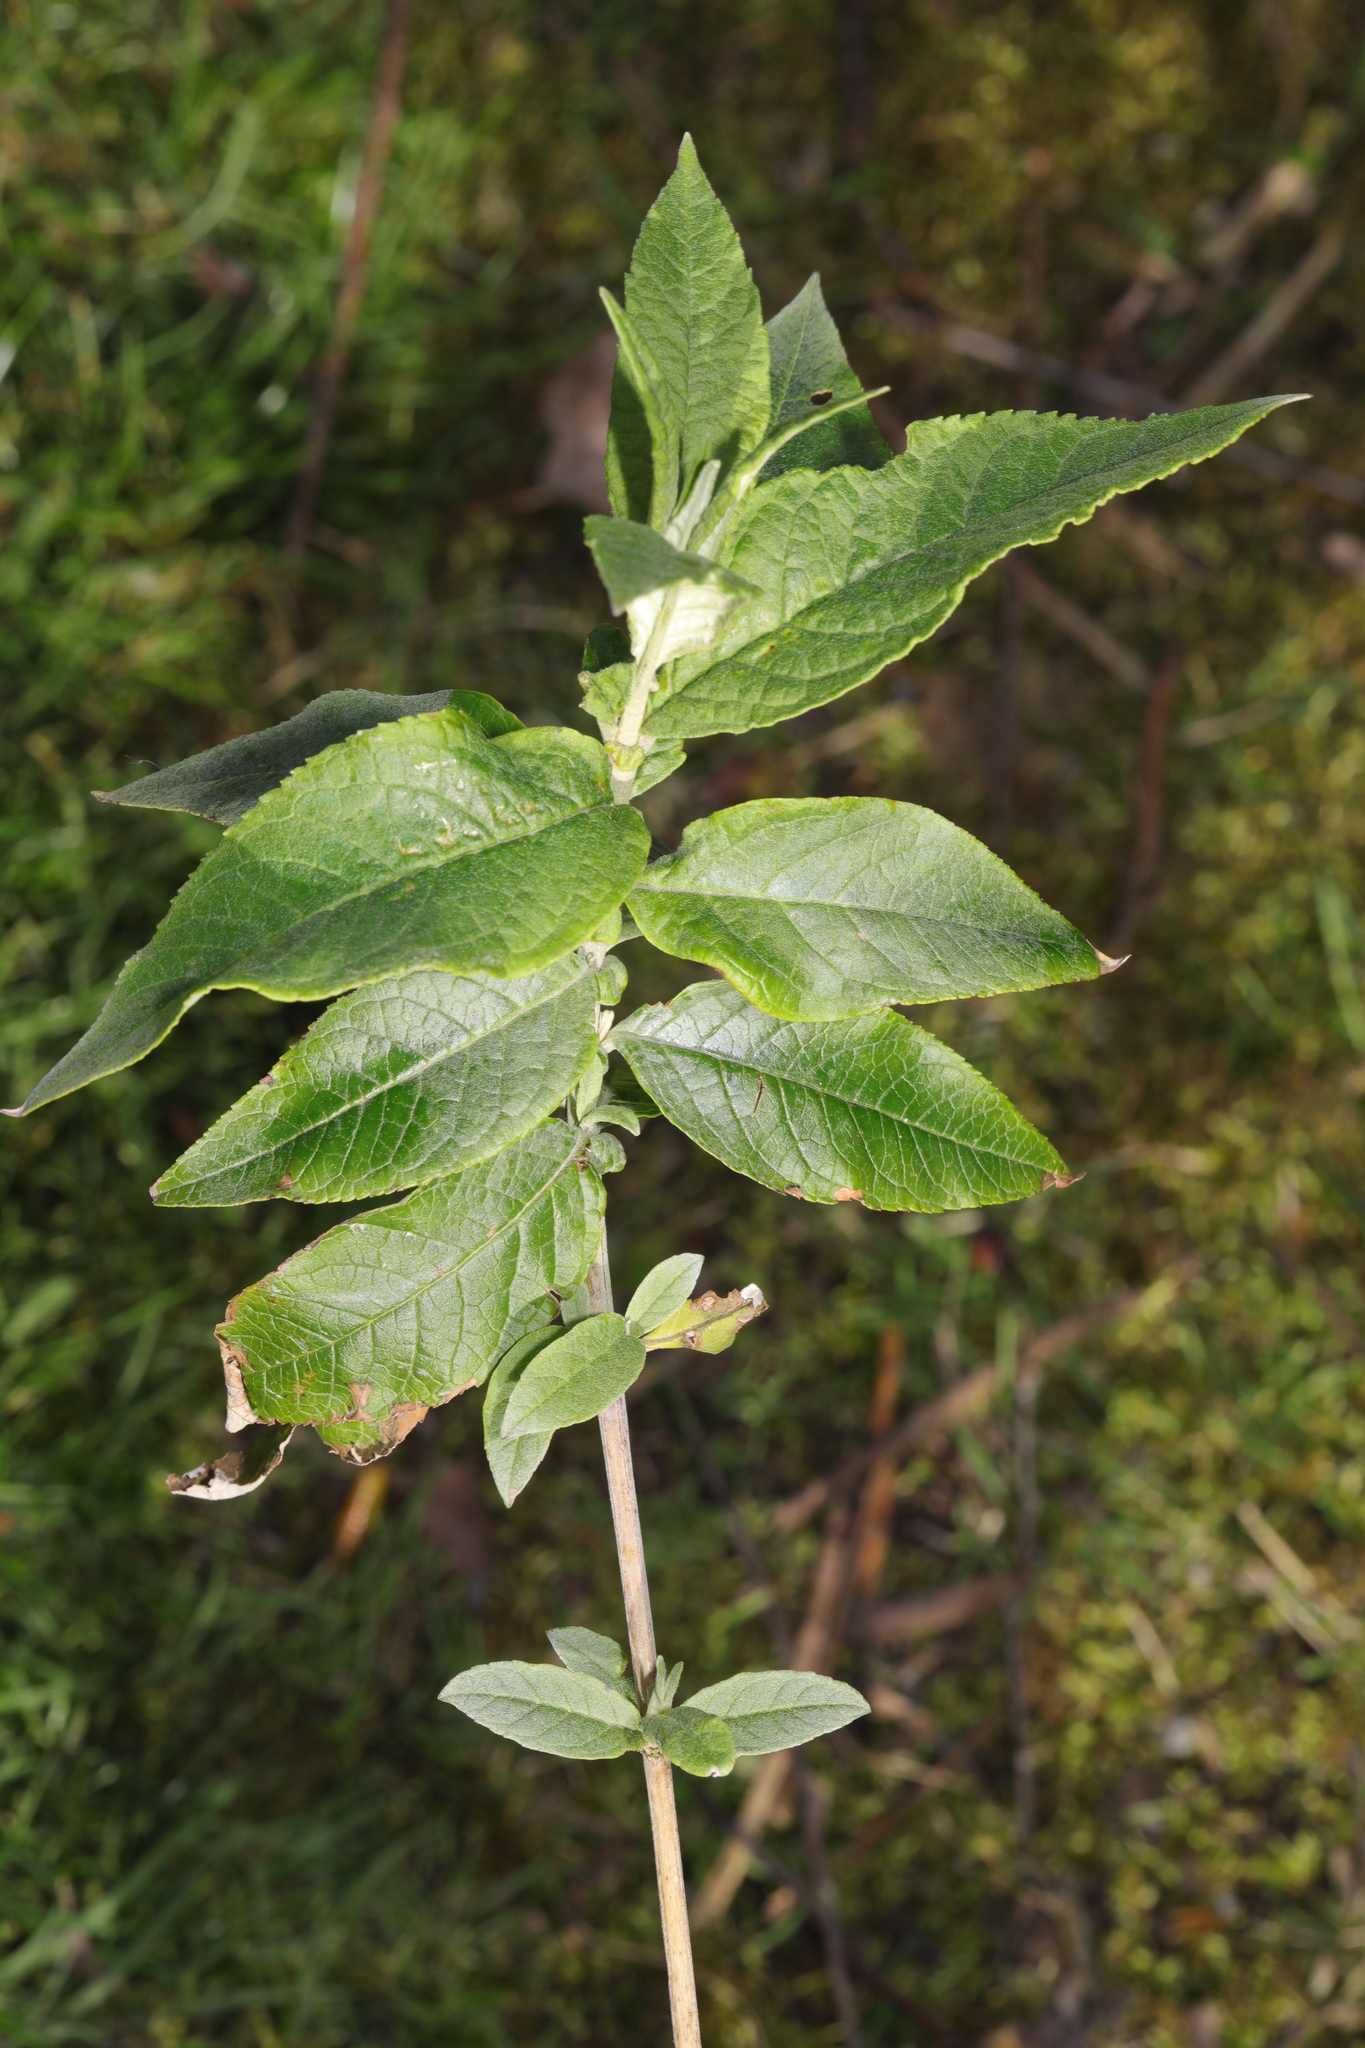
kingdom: Plantae
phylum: Tracheophyta
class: Magnoliopsida
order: Lamiales
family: Scrophulariaceae
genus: Buddleja
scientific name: Buddleja davidii
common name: Butterfly-bush
